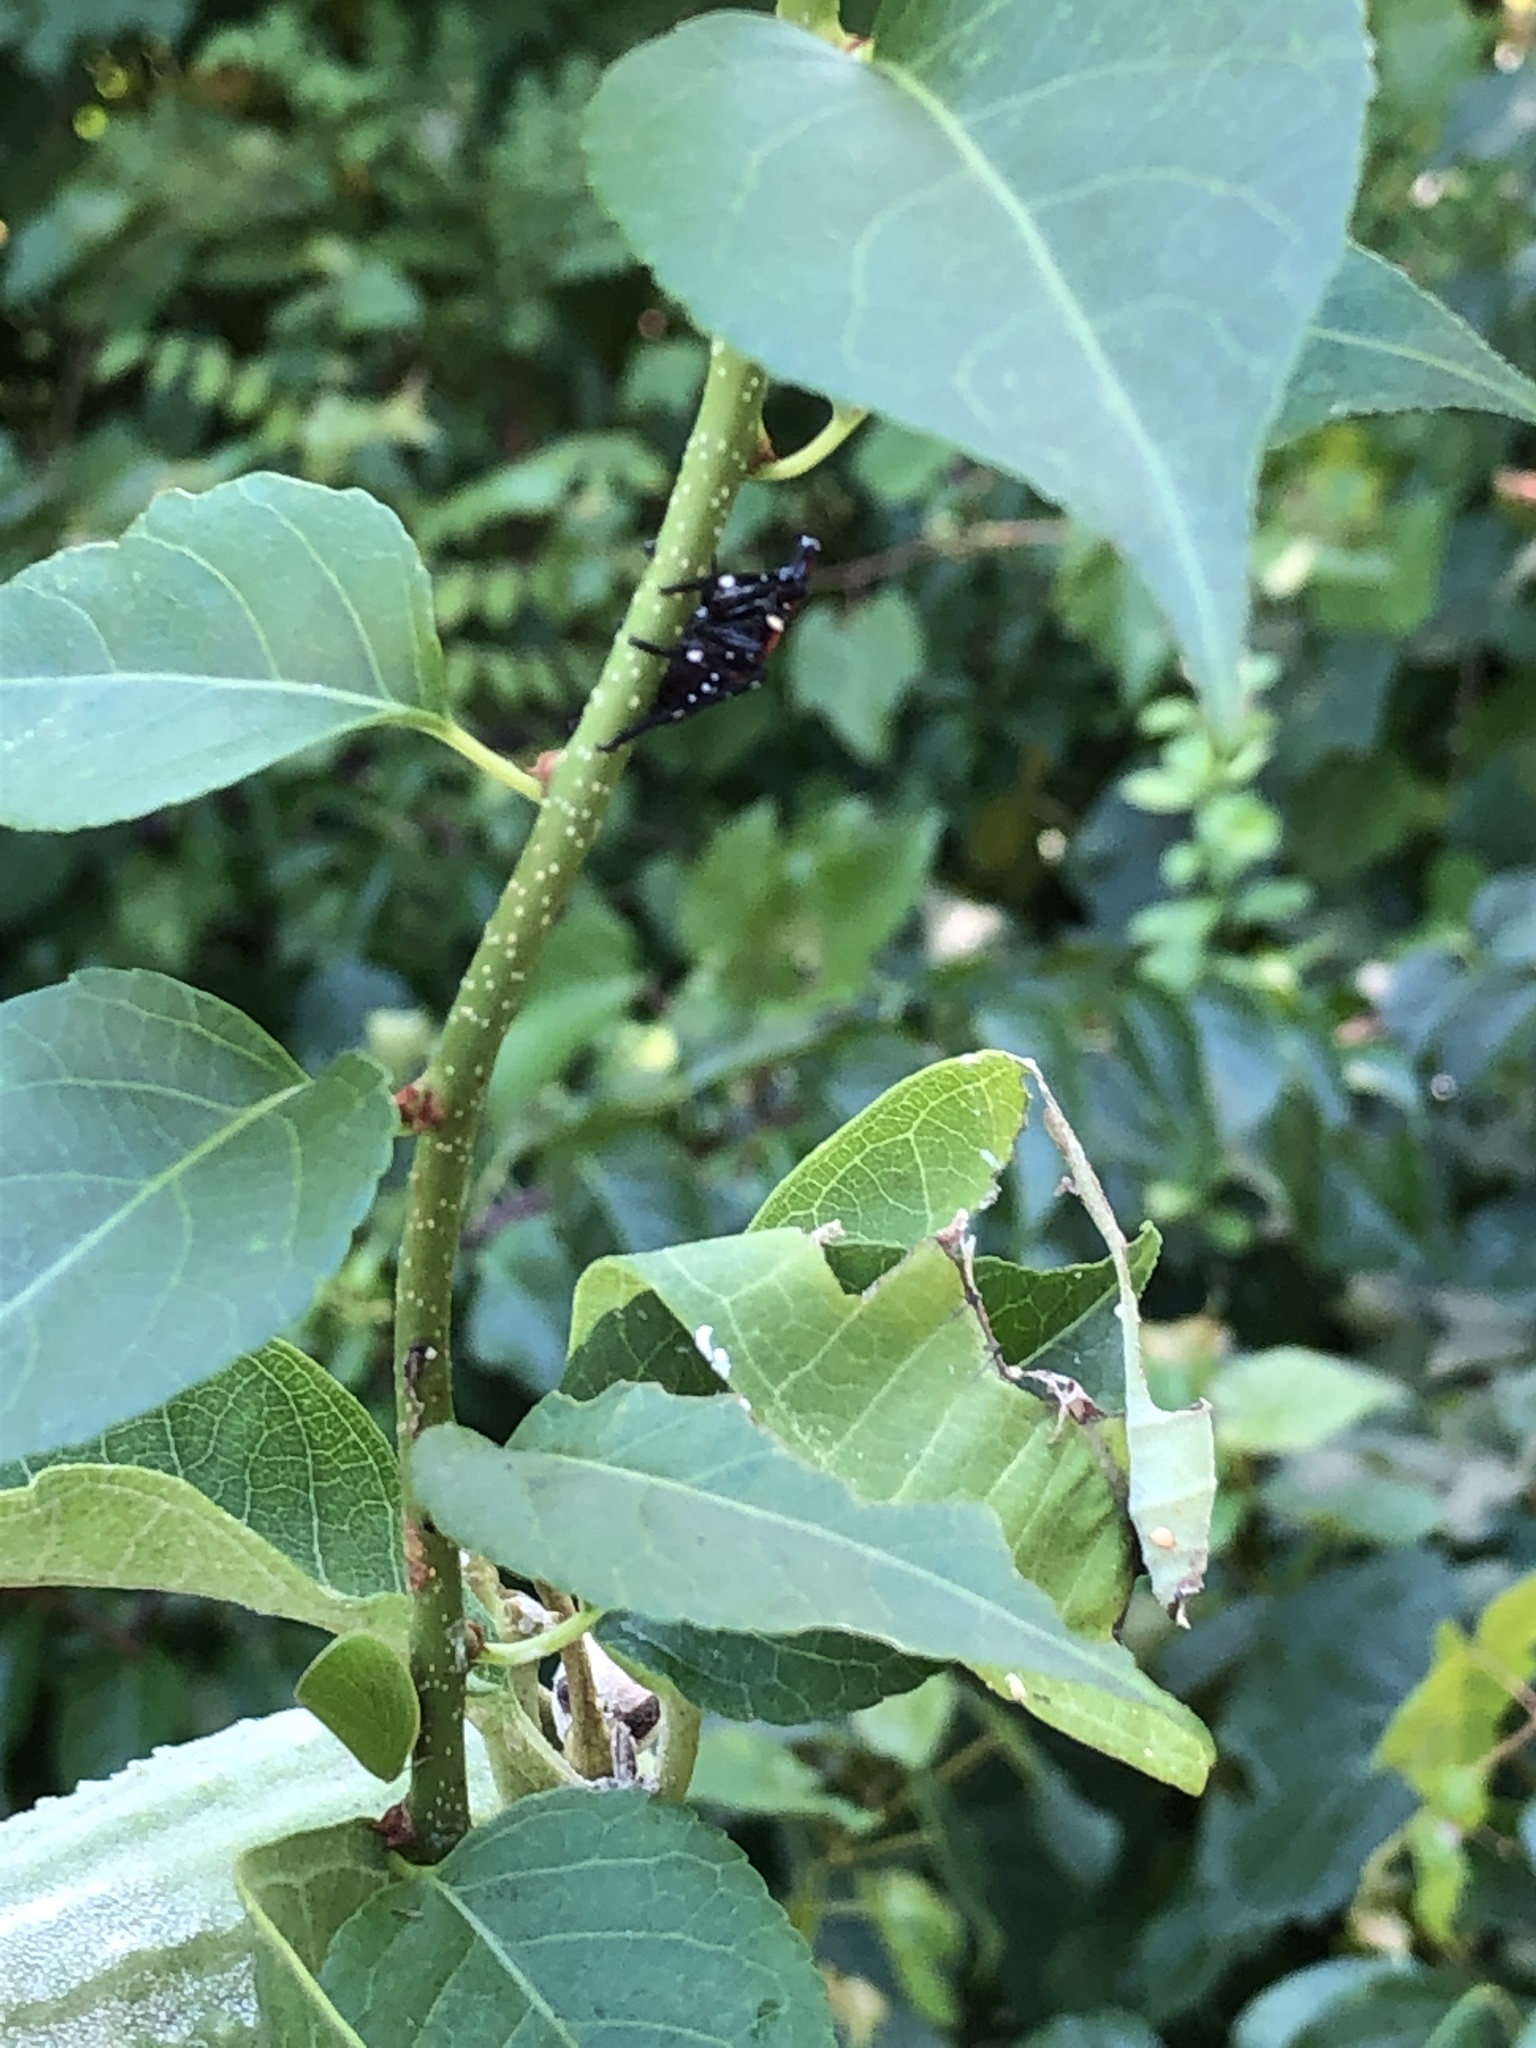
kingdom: Animalia
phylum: Arthropoda
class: Insecta
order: Hemiptera
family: Fulgoridae
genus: Lycorma
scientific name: Lycorma delicatula
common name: Spotted lanternfly
